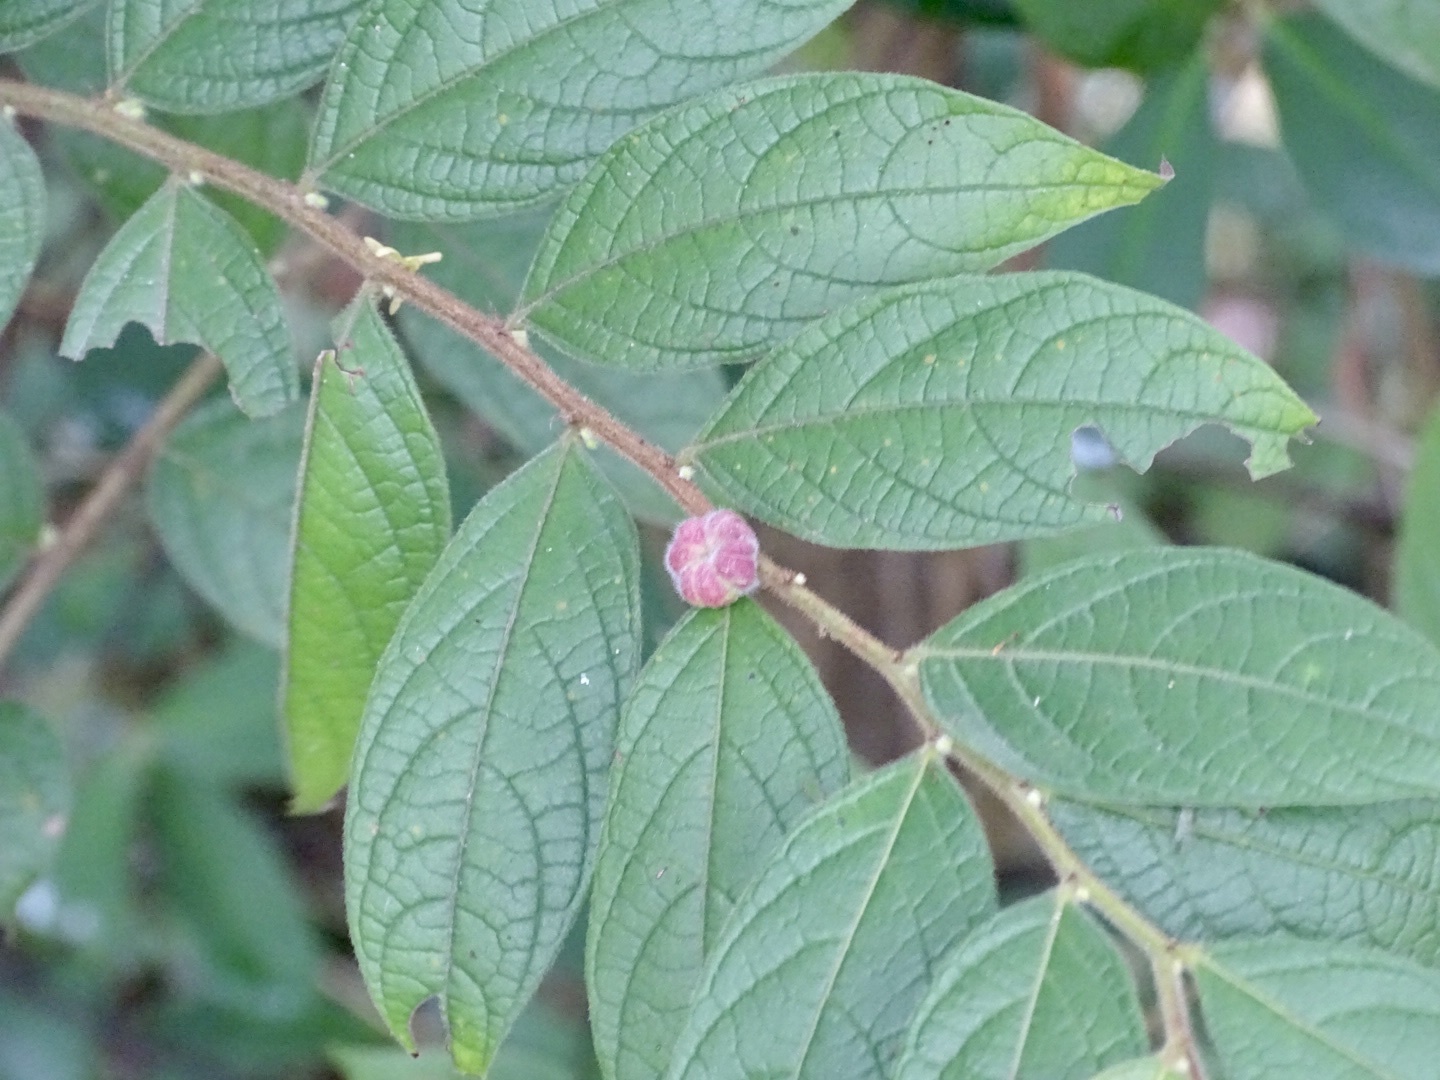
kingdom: Plantae
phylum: Tracheophyta
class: Magnoliopsida
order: Malpighiales
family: Phyllanthaceae
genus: Glochidion
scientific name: Glochidion eriocarpum
